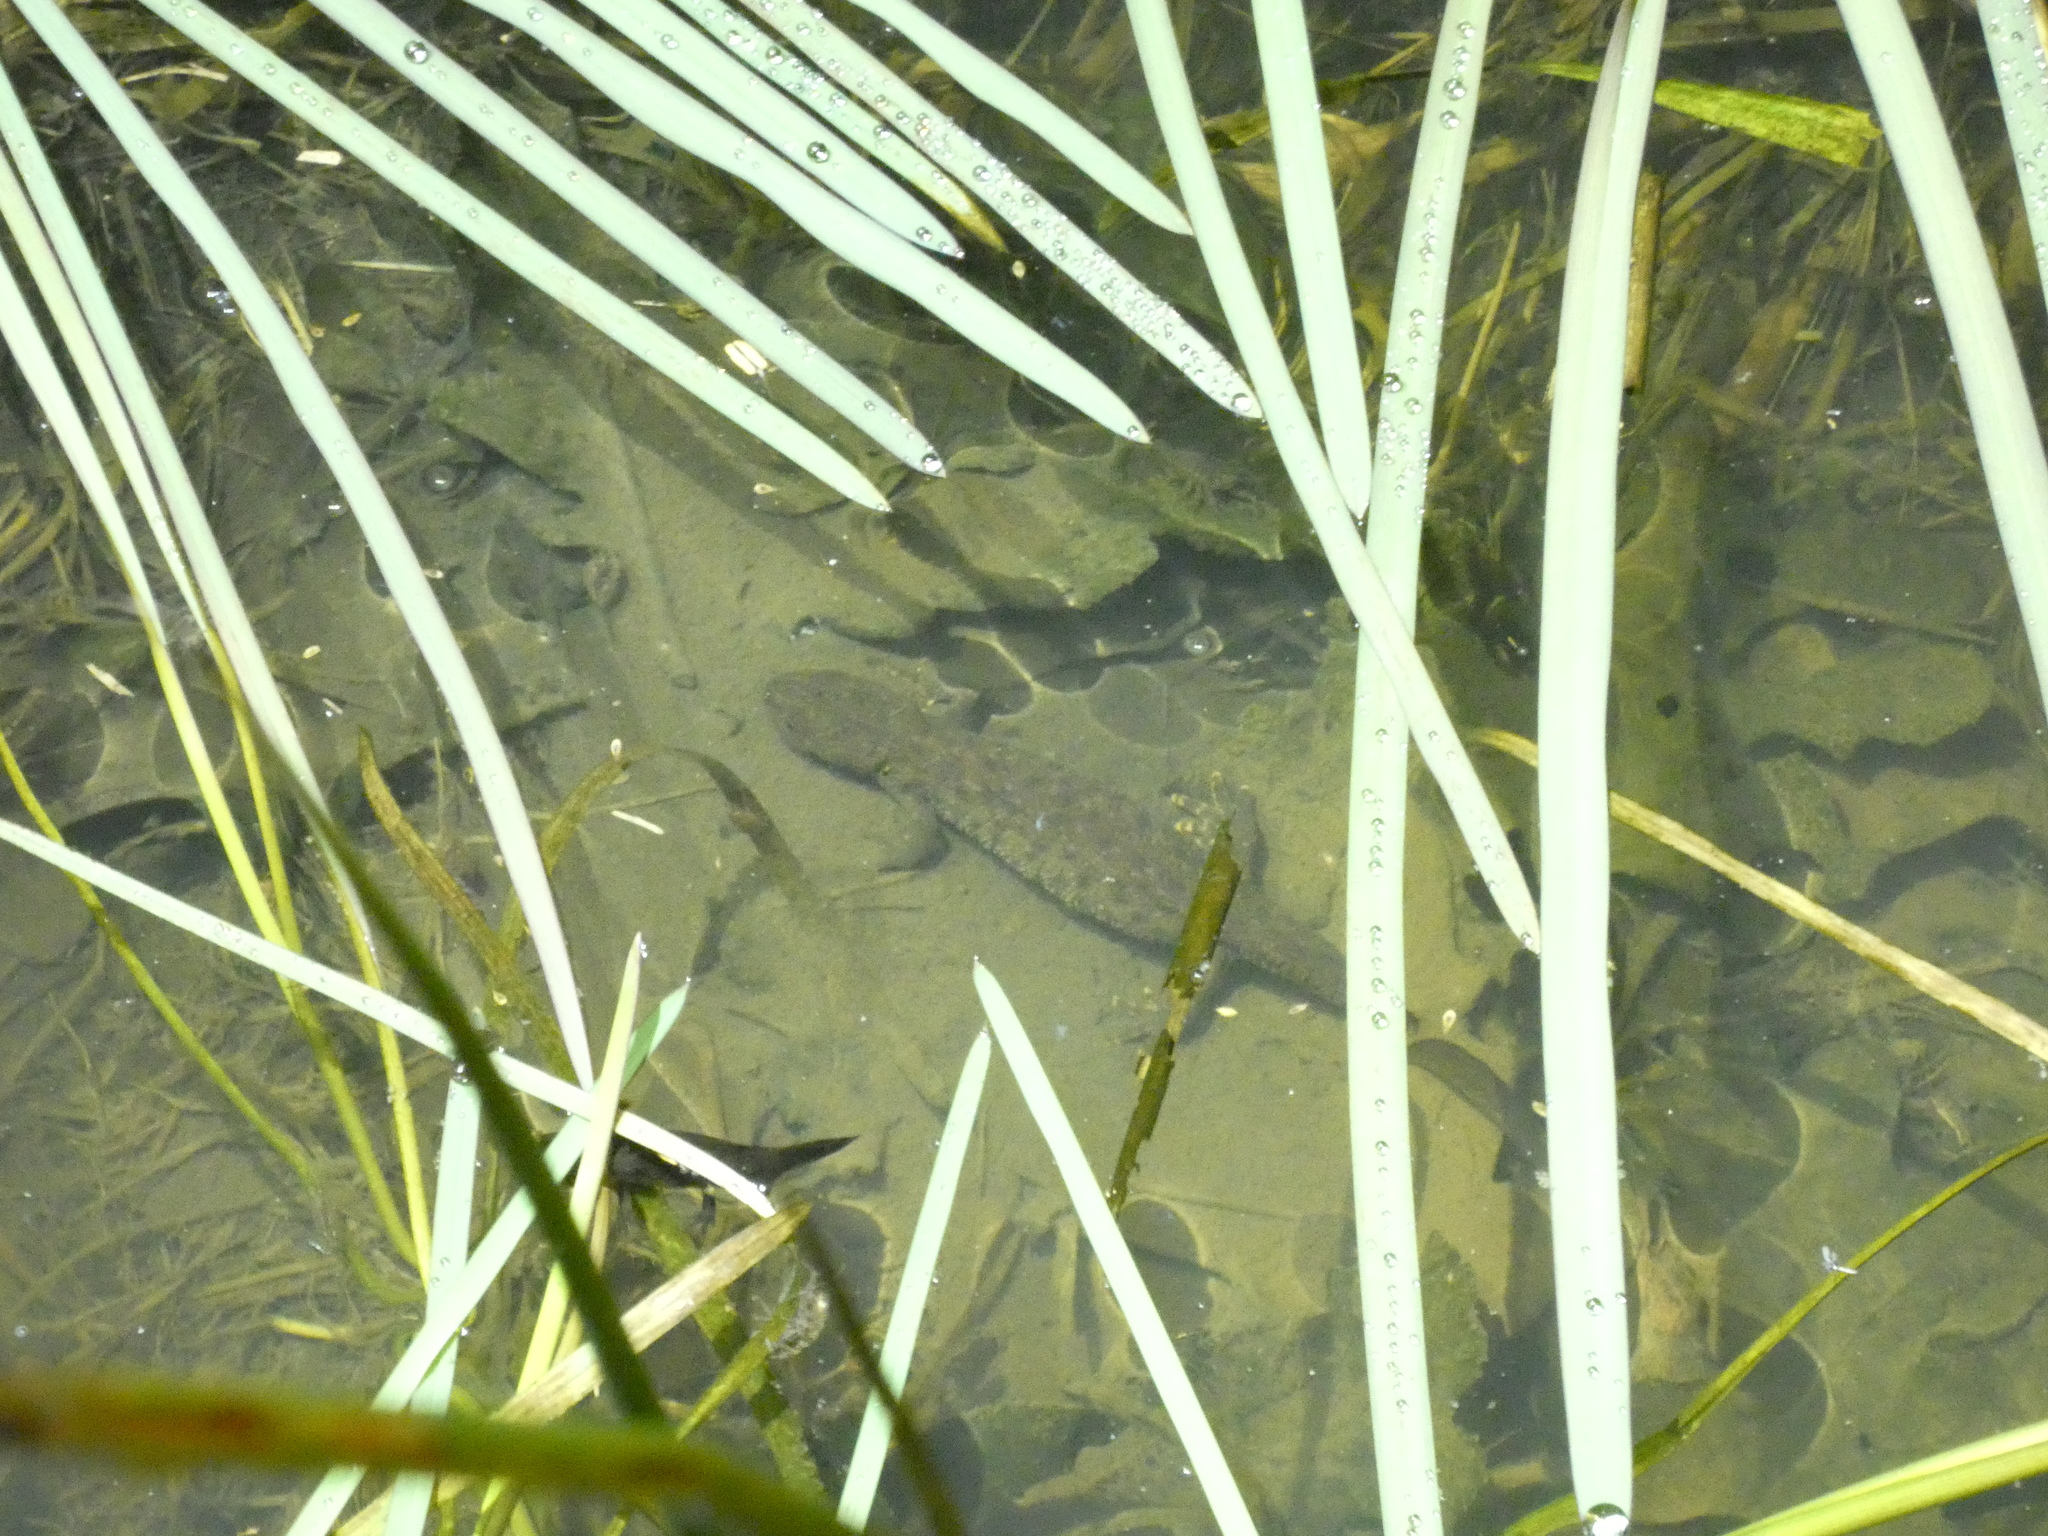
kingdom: Animalia
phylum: Chordata
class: Amphibia
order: Caudata
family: Salamandridae
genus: Triturus
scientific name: Triturus cristatus
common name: Crested newt
